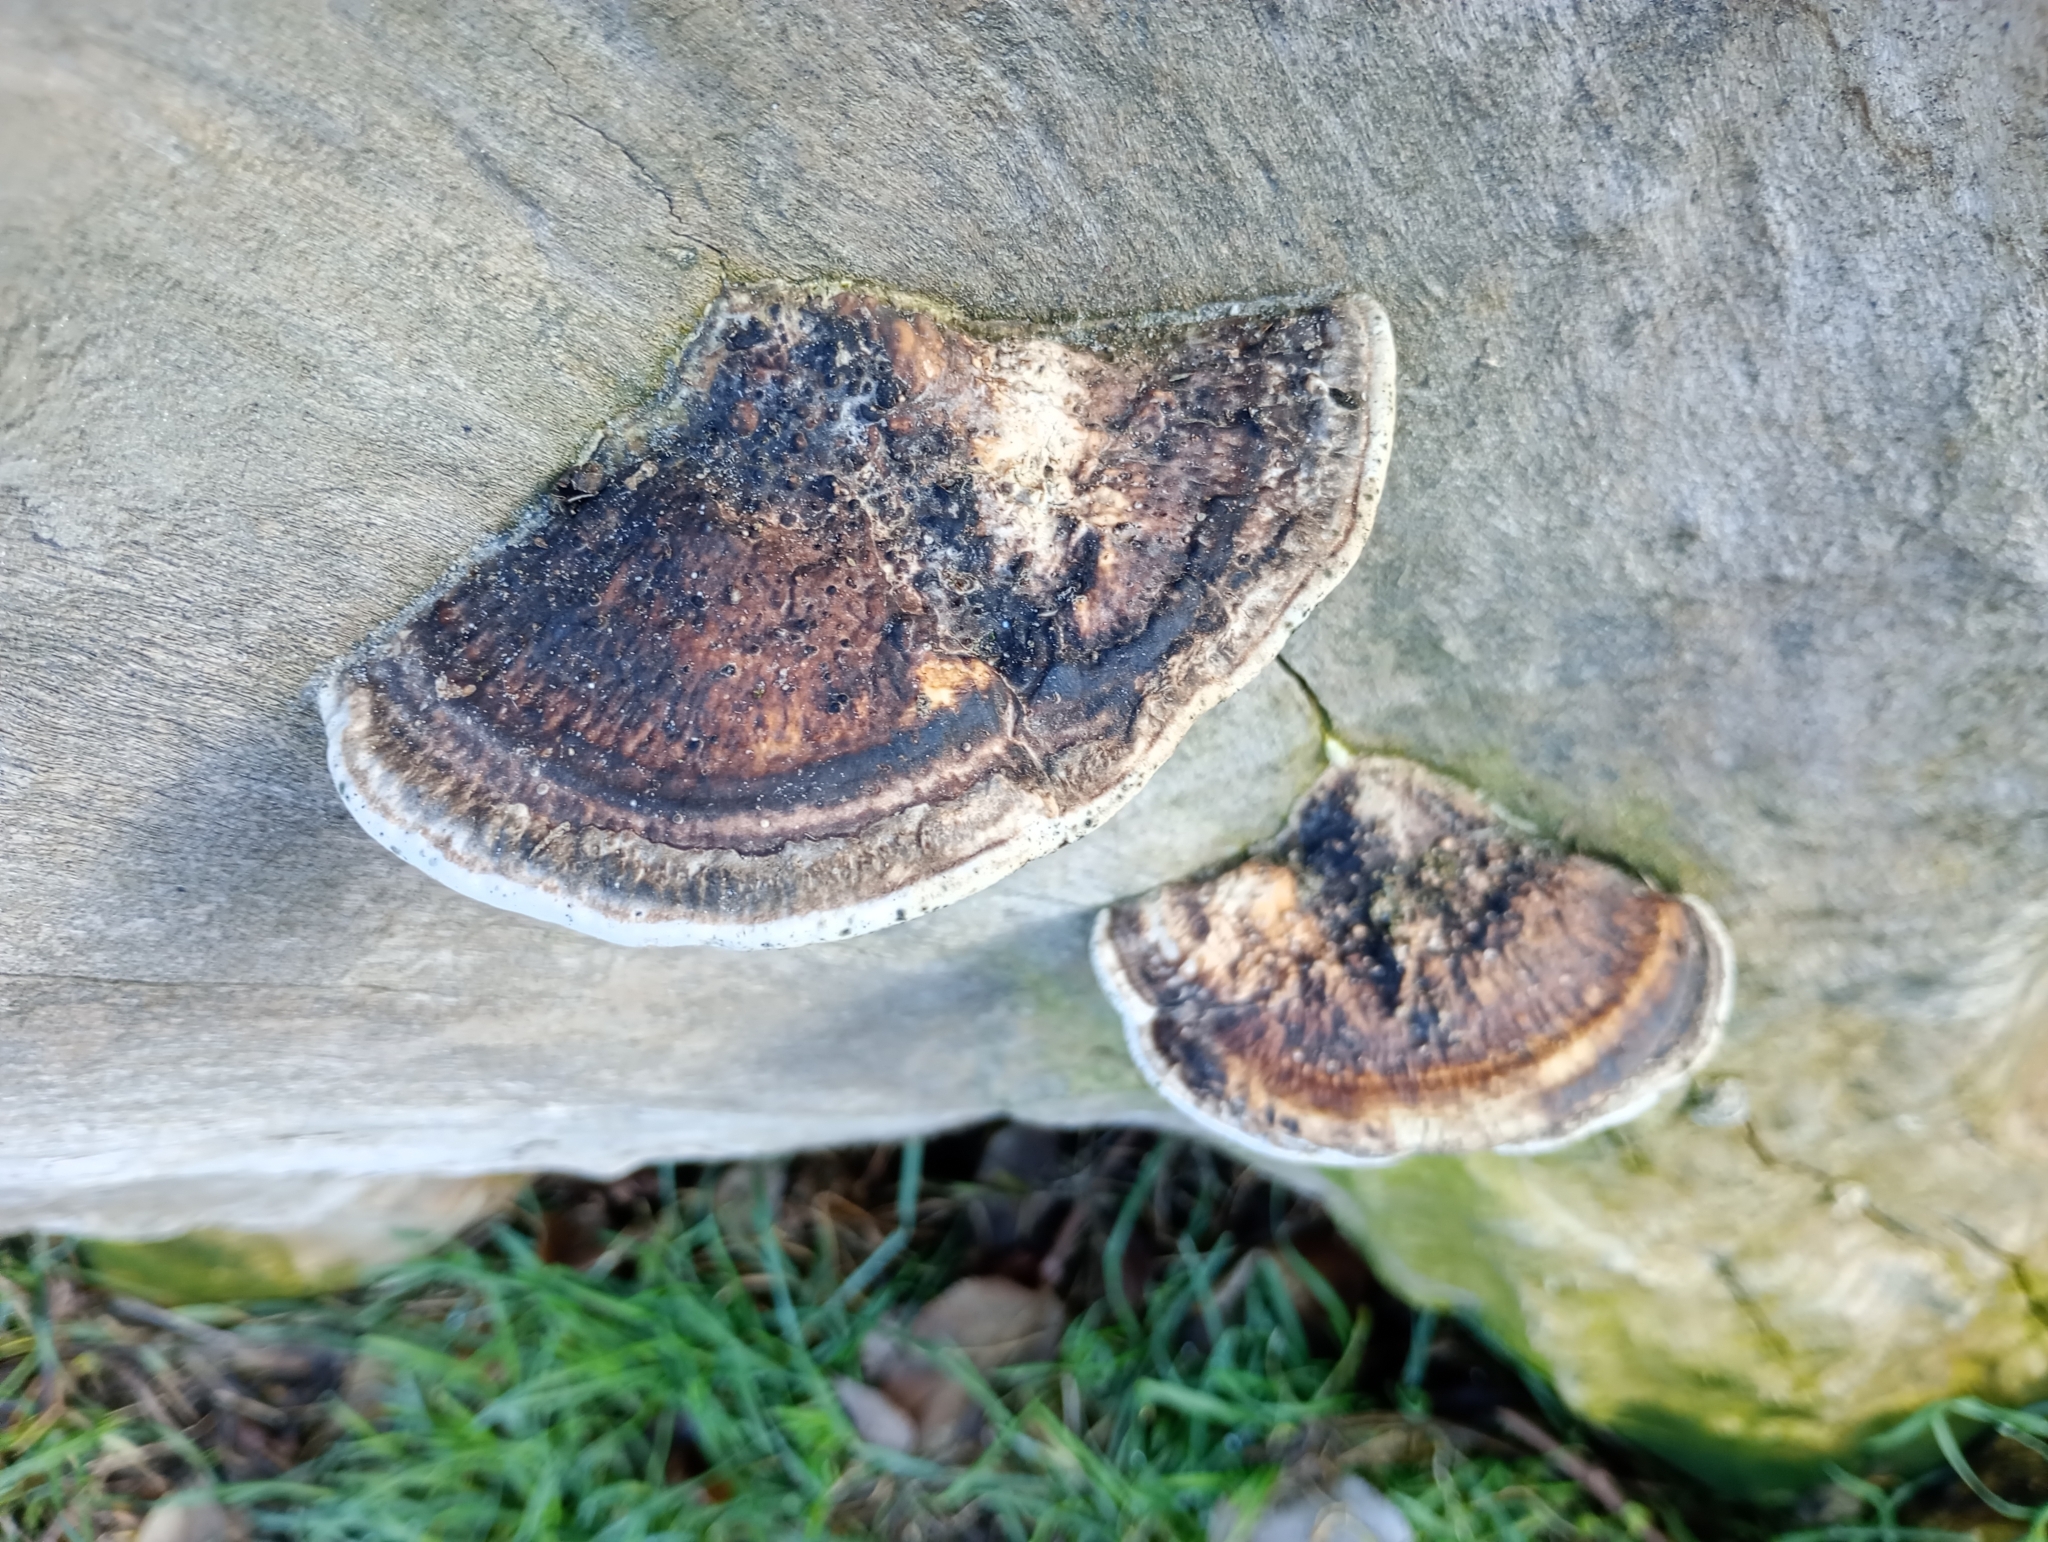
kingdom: Fungi
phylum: Basidiomycota
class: Agaricomycetes
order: Polyporales
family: Fomitopsidaceae
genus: Fomitopsis
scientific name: Fomitopsis
